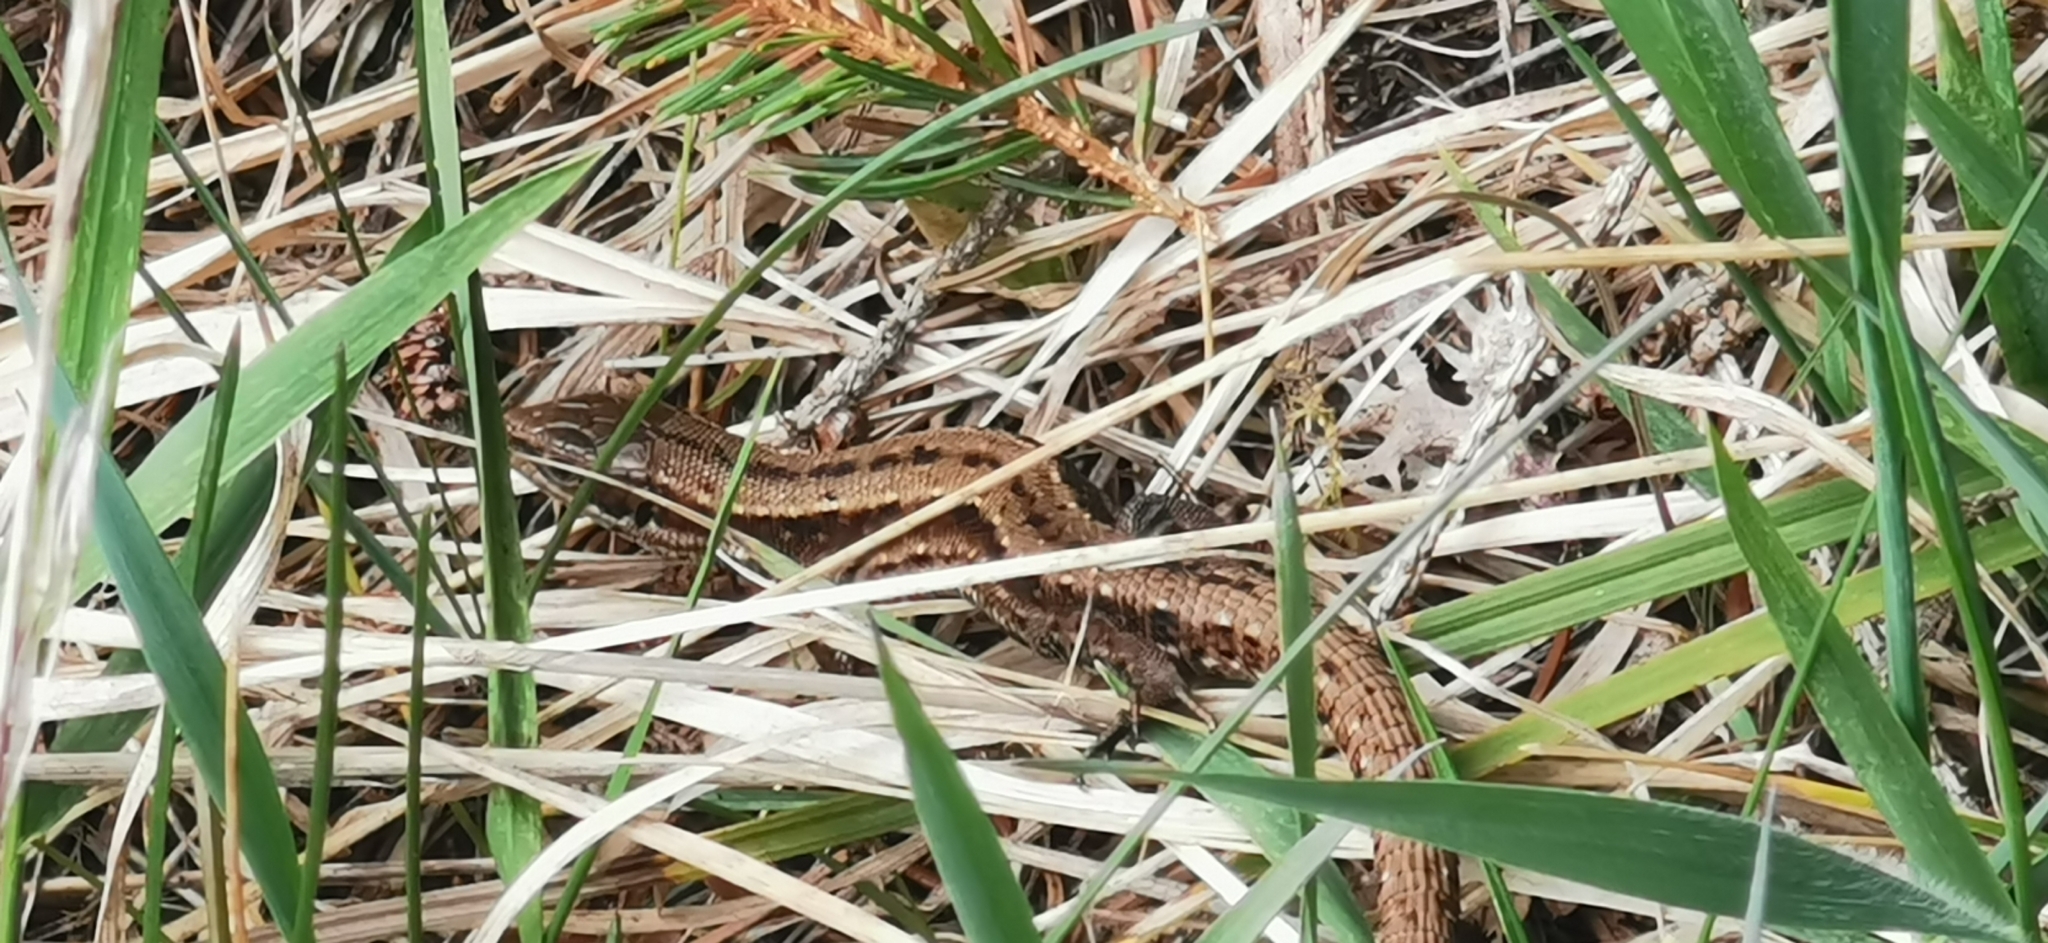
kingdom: Animalia
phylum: Chordata
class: Squamata
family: Lacertidae
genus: Zootoca
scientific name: Zootoca vivipara
